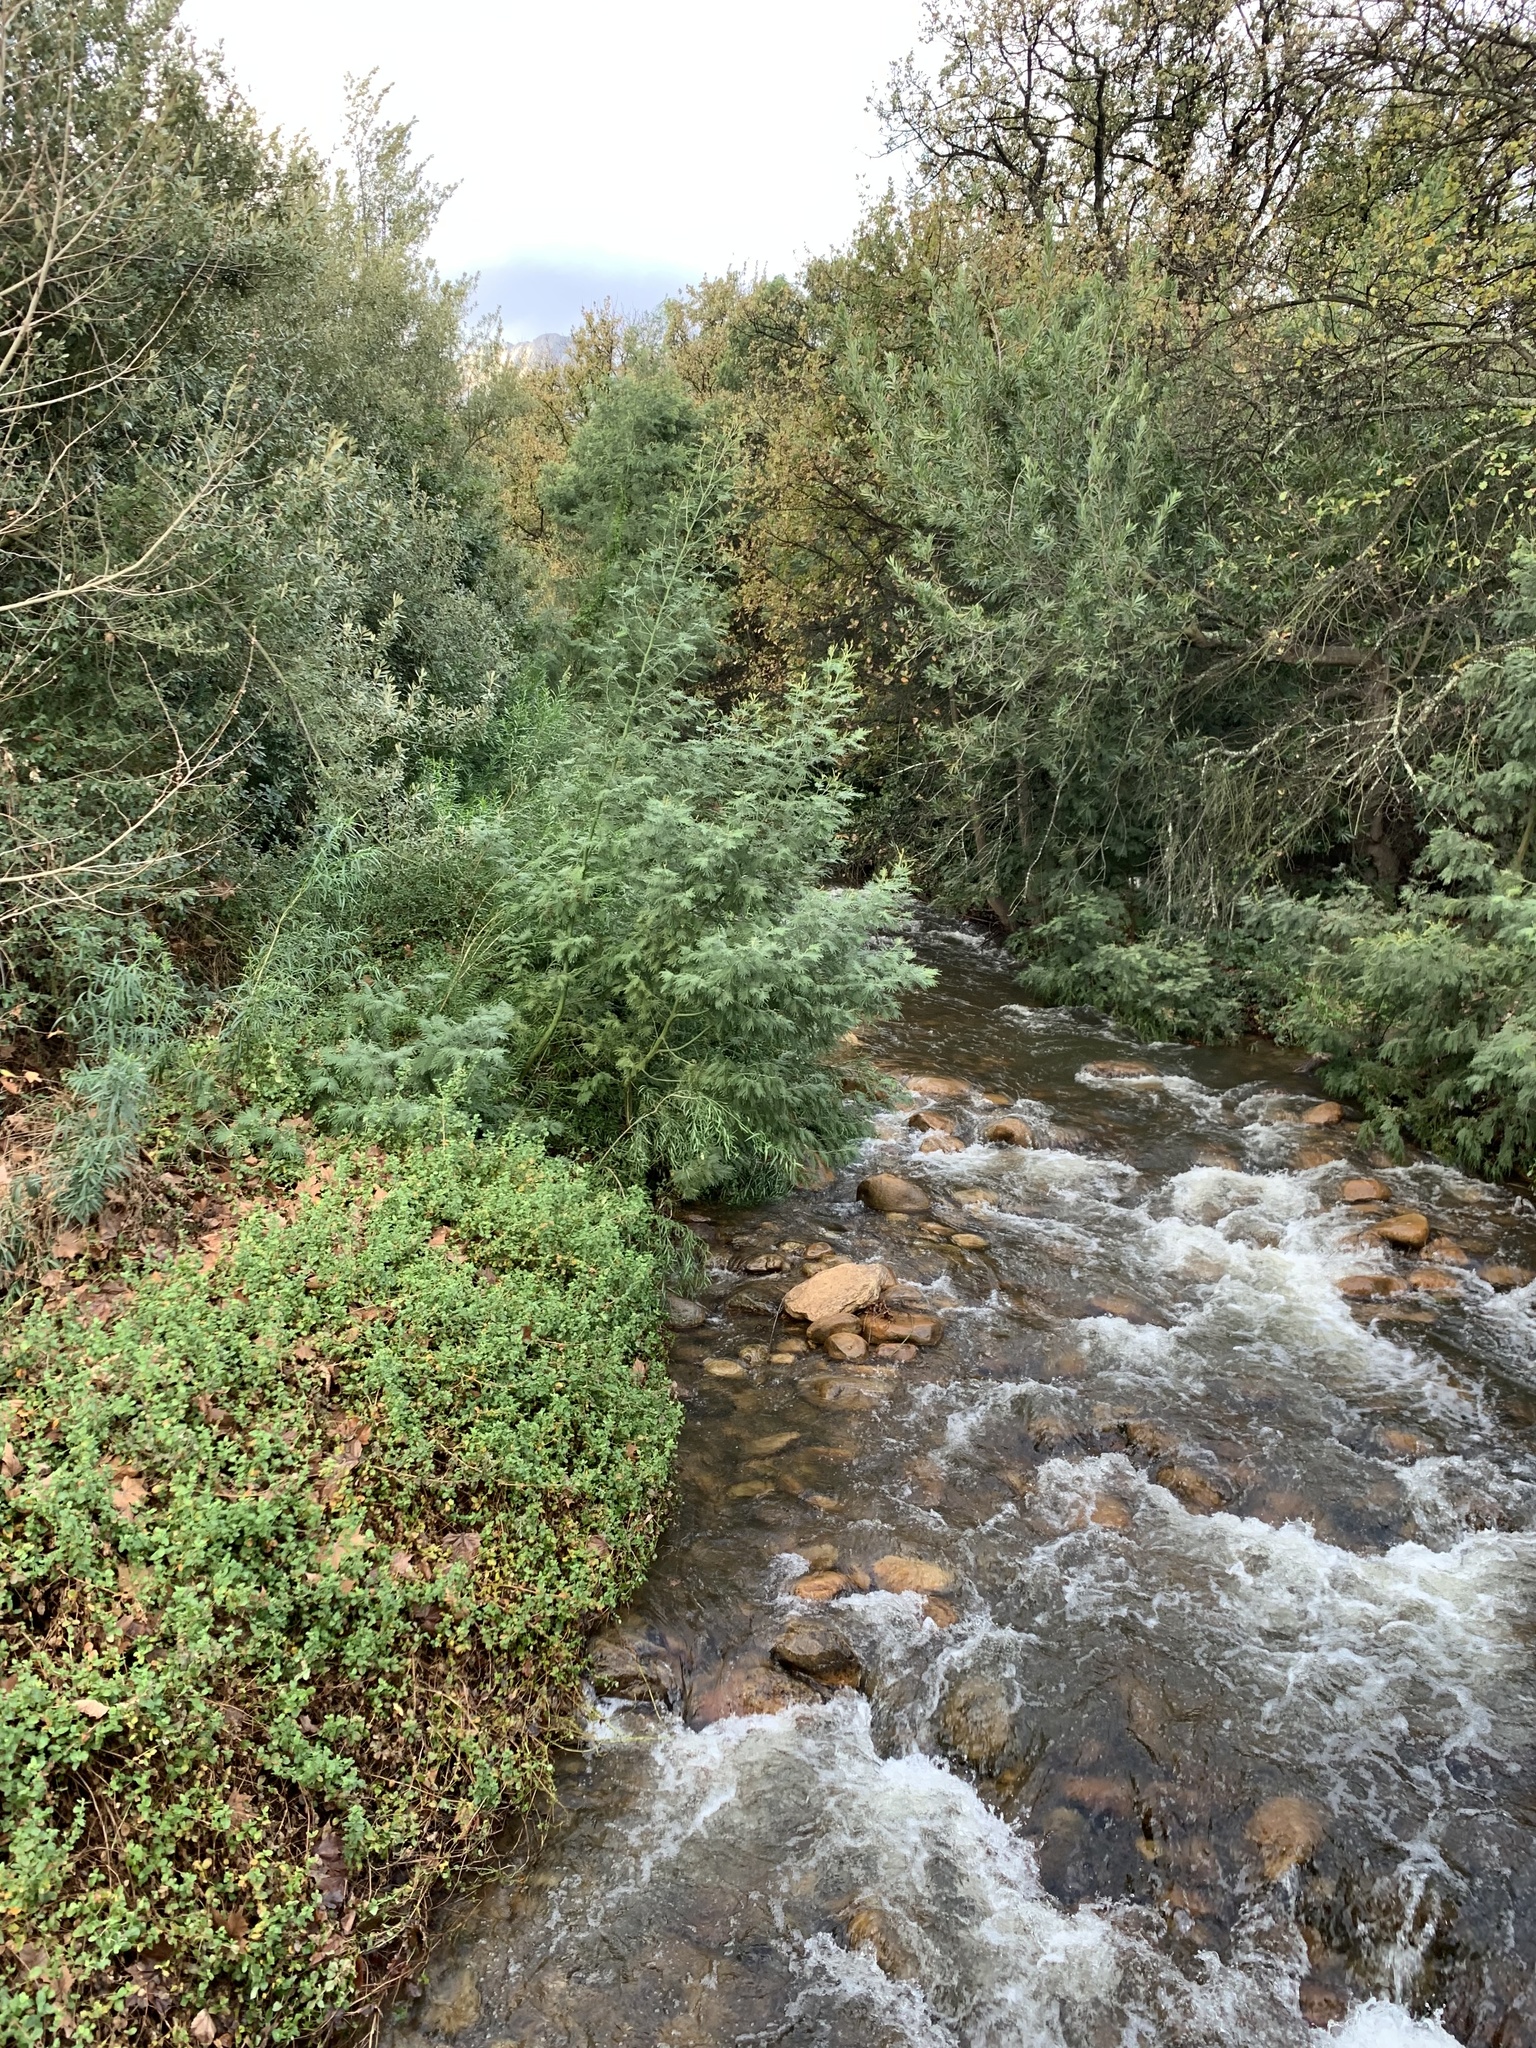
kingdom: Plantae
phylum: Tracheophyta
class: Magnoliopsida
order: Fabales
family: Fabaceae
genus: Acacia
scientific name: Acacia mearnsii
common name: Black wattle
